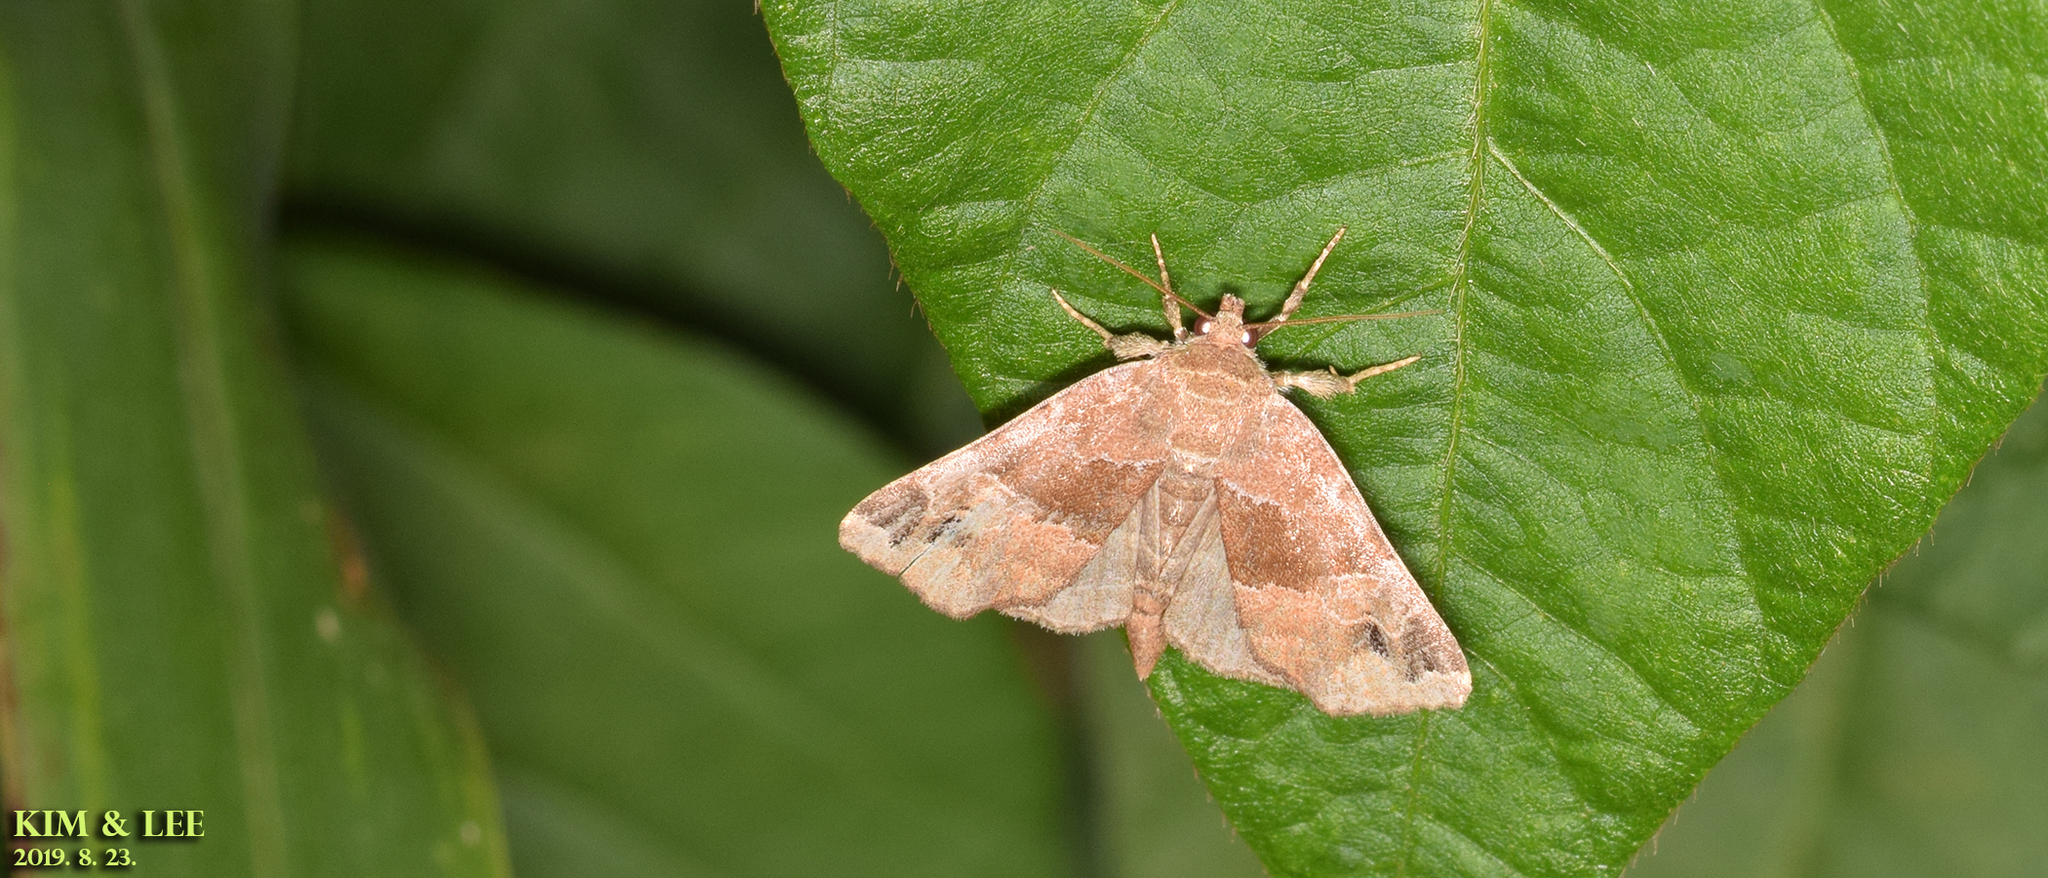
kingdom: Animalia
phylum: Arthropoda
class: Insecta
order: Lepidoptera
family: Noctuidae
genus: Niphonyx
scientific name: Niphonyx segregata
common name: Hops angleshade moth
